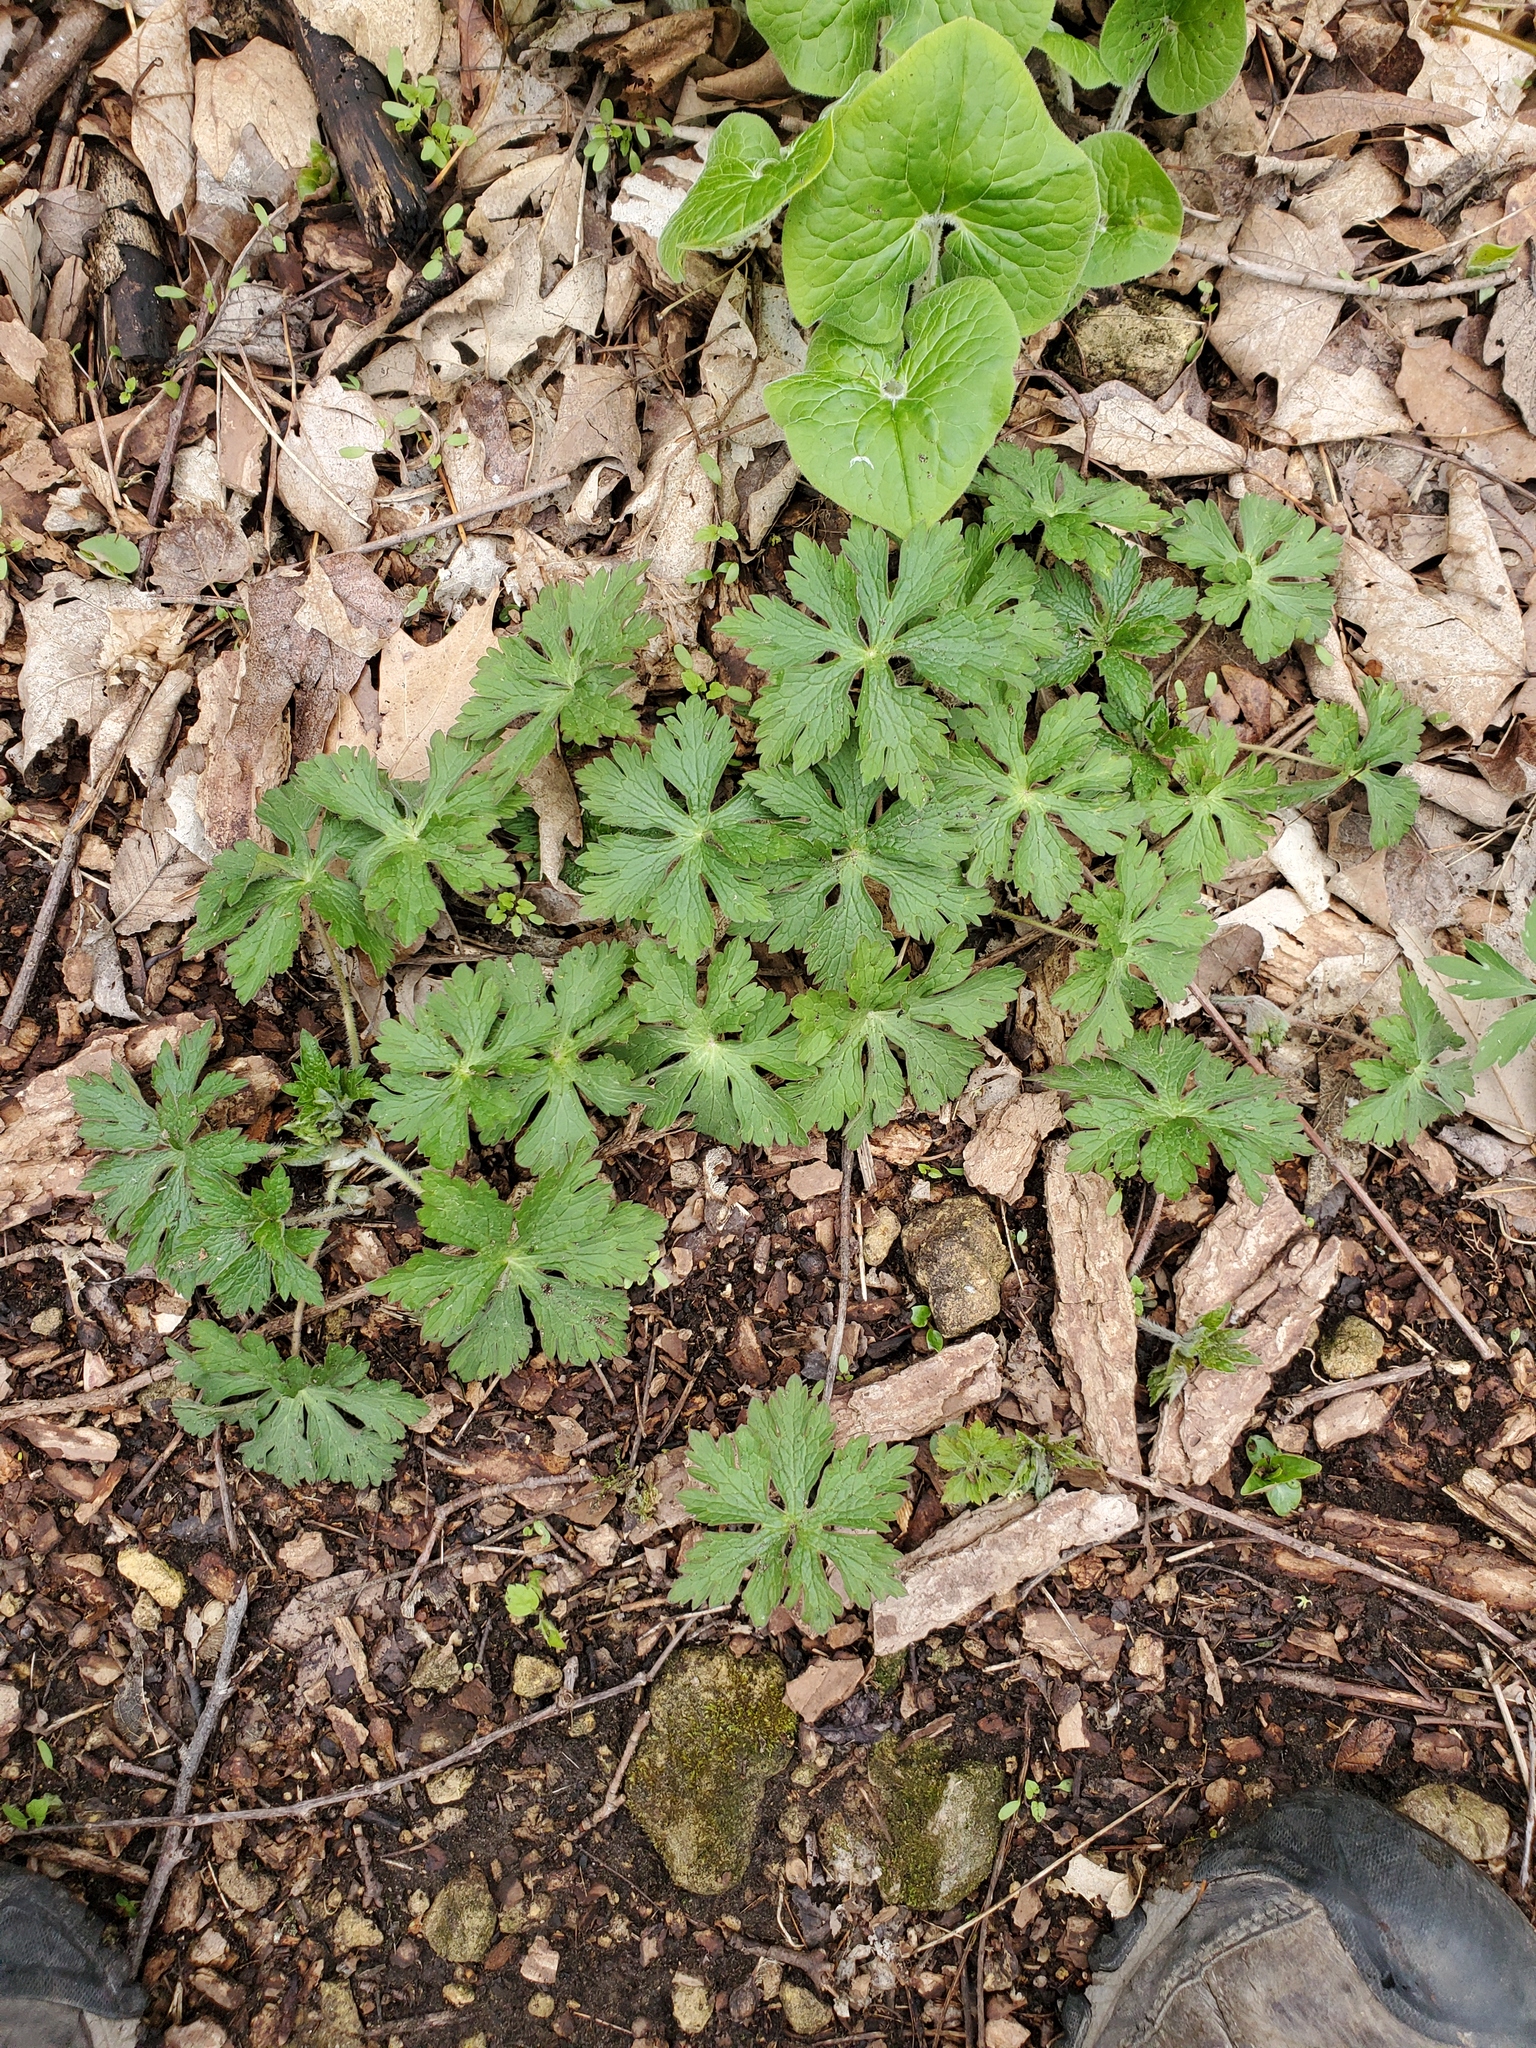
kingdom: Plantae
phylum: Tracheophyta
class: Magnoliopsida
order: Geraniales
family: Geraniaceae
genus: Geranium
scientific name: Geranium maculatum
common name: Spotted geranium
